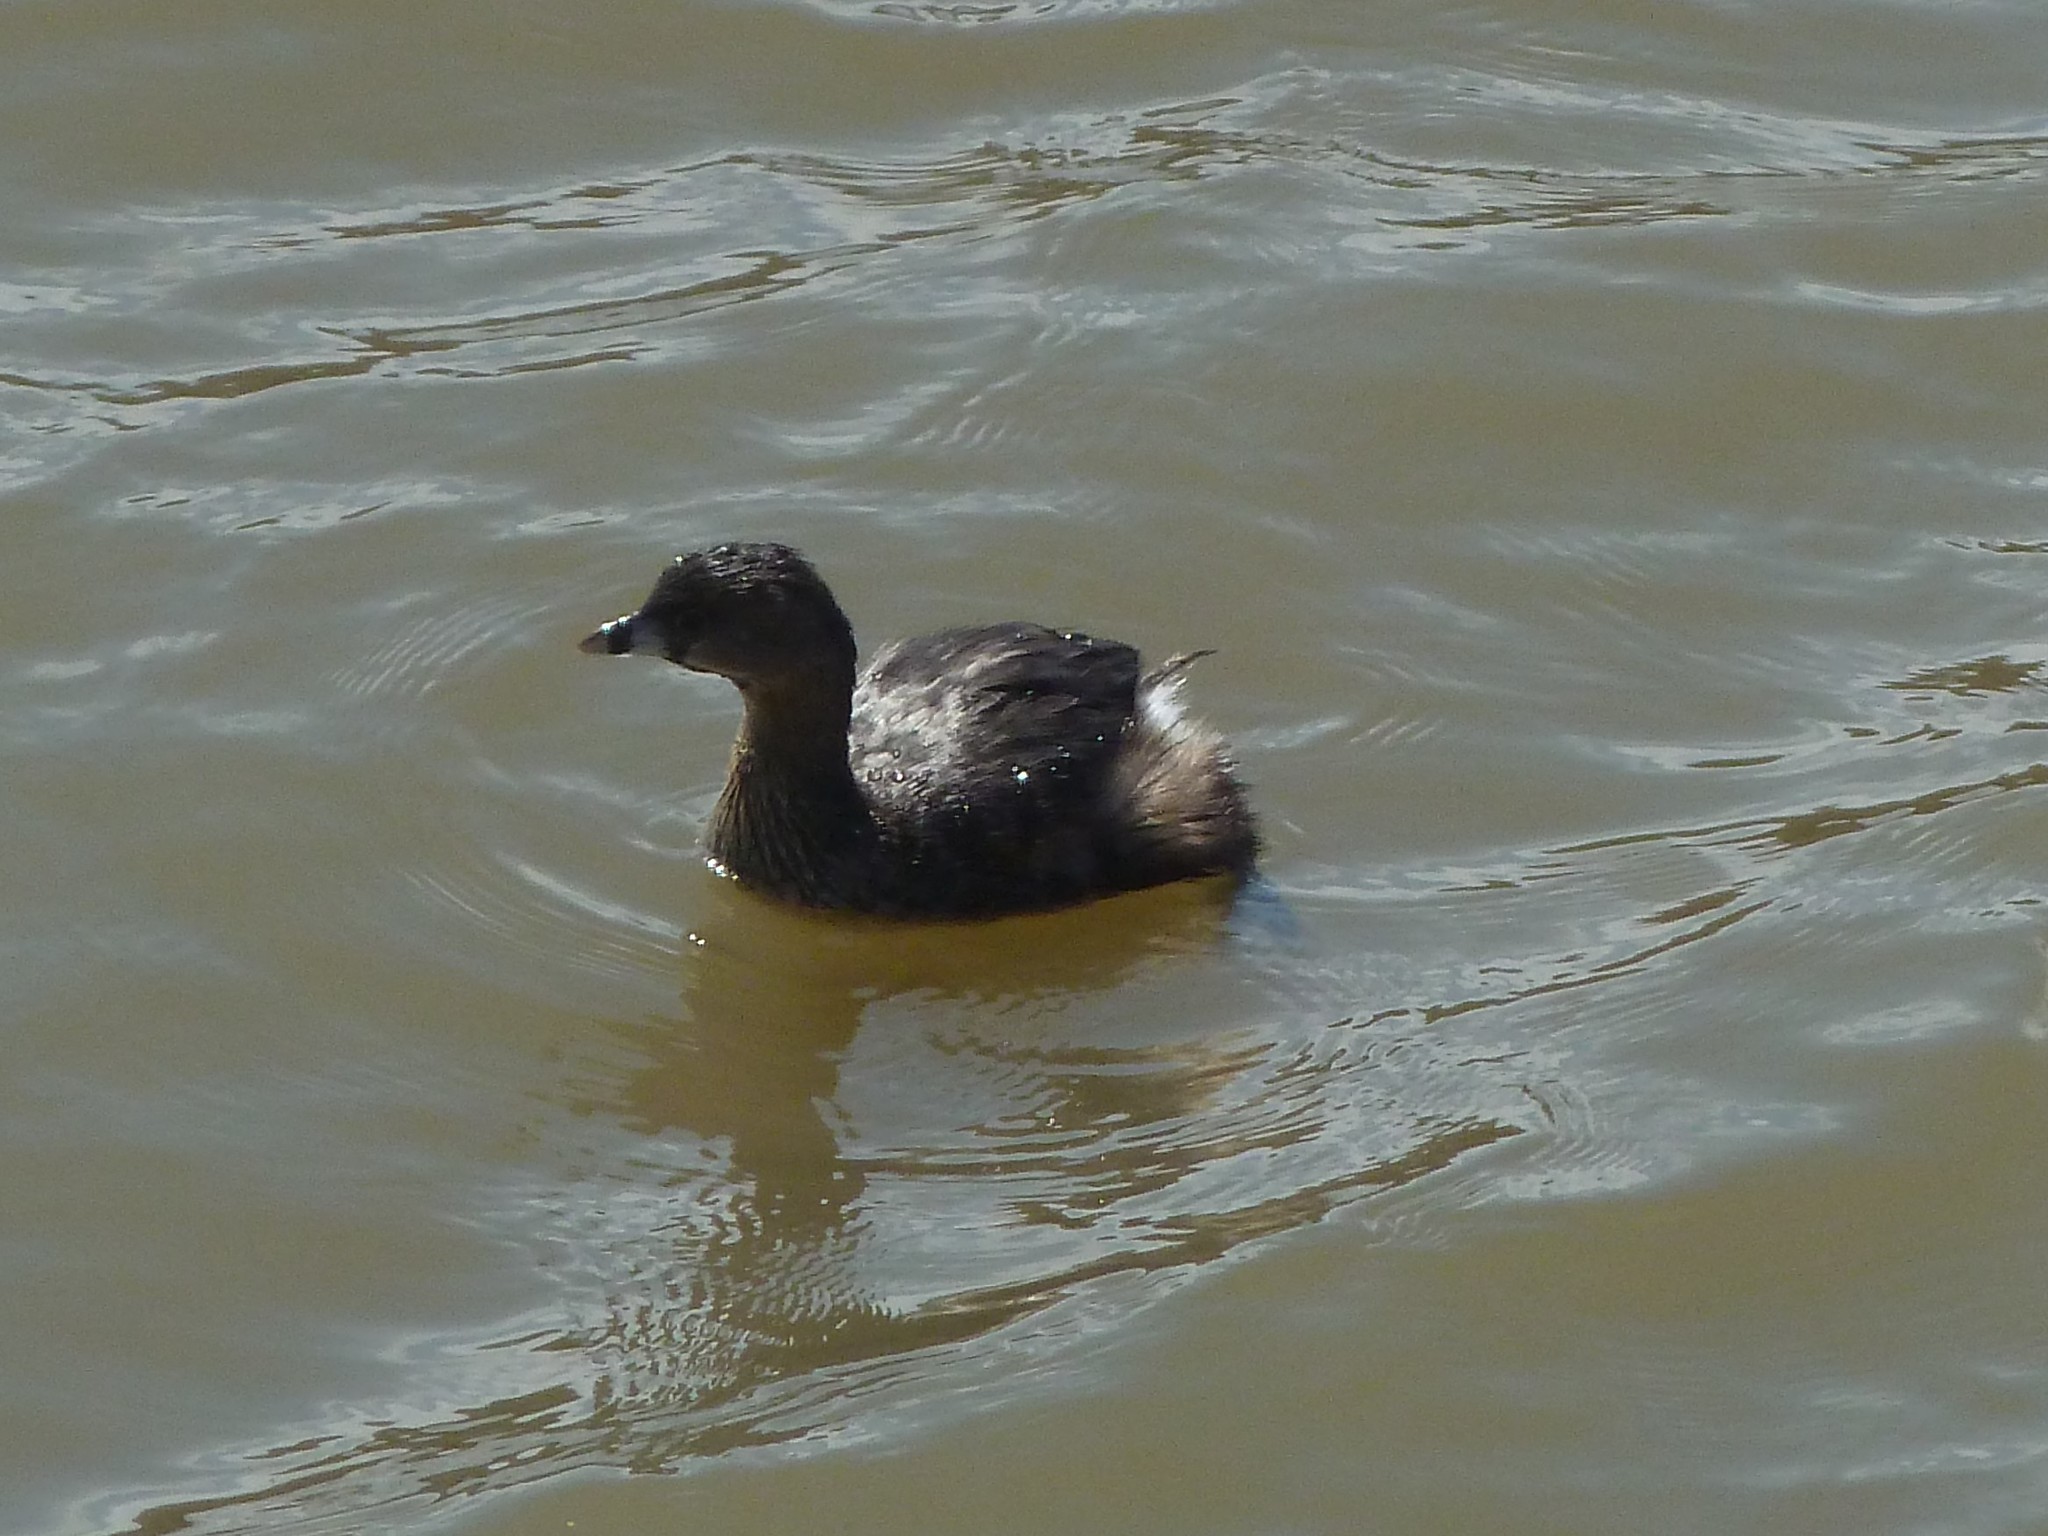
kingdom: Animalia
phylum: Chordata
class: Aves
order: Podicipediformes
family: Podicipedidae
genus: Podilymbus
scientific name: Podilymbus podiceps
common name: Pied-billed grebe
